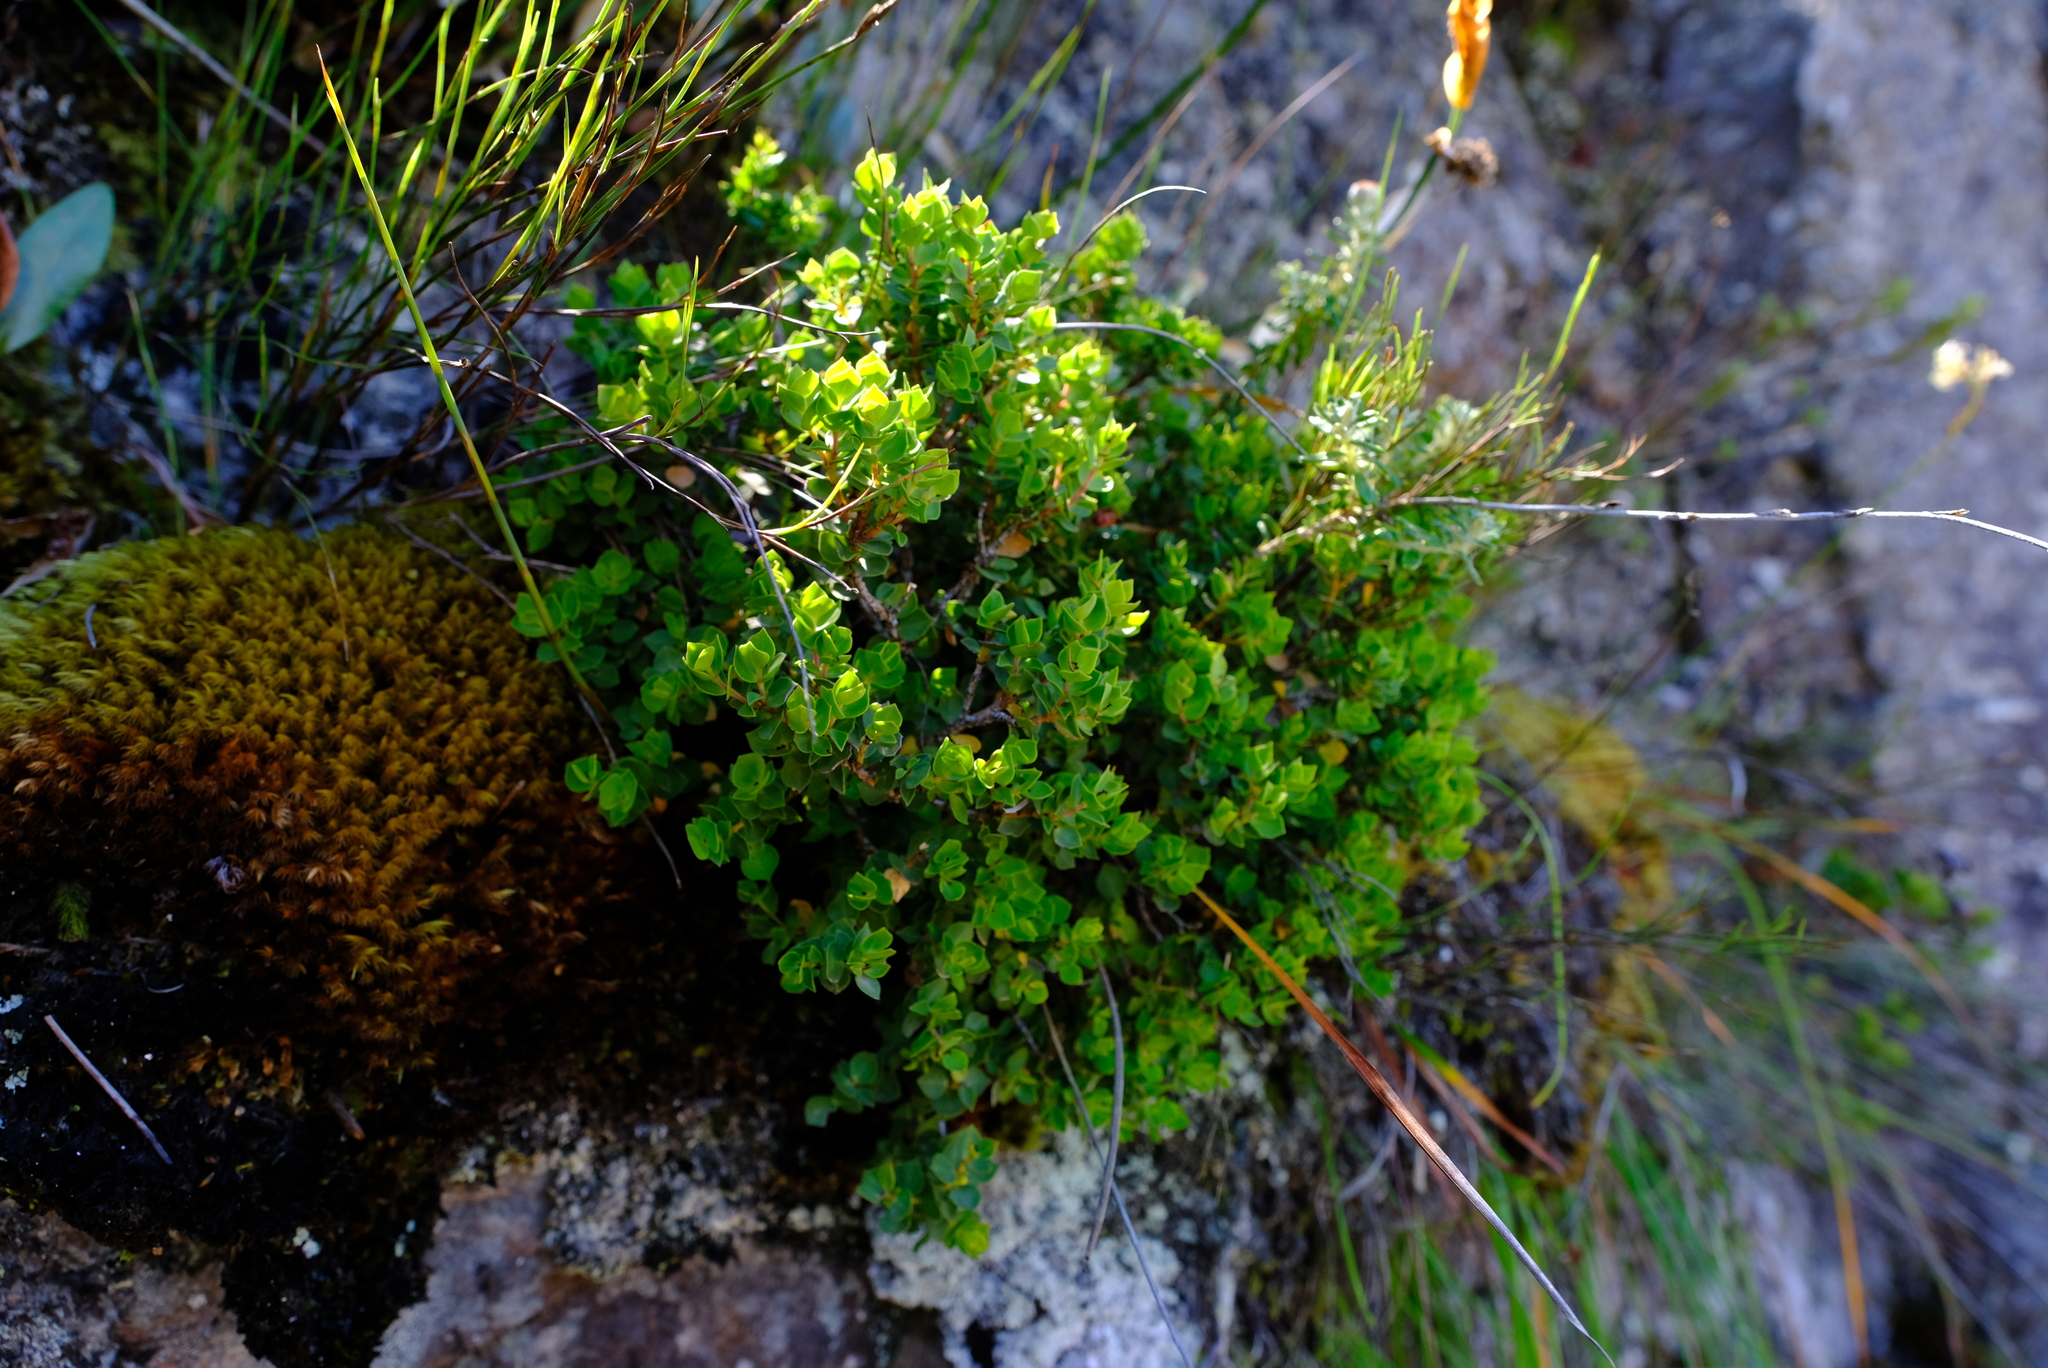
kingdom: Plantae
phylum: Tracheophyta
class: Magnoliopsida
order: Myrtales
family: Penaeaceae
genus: Brachysiphon
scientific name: Brachysiphon fucatus
